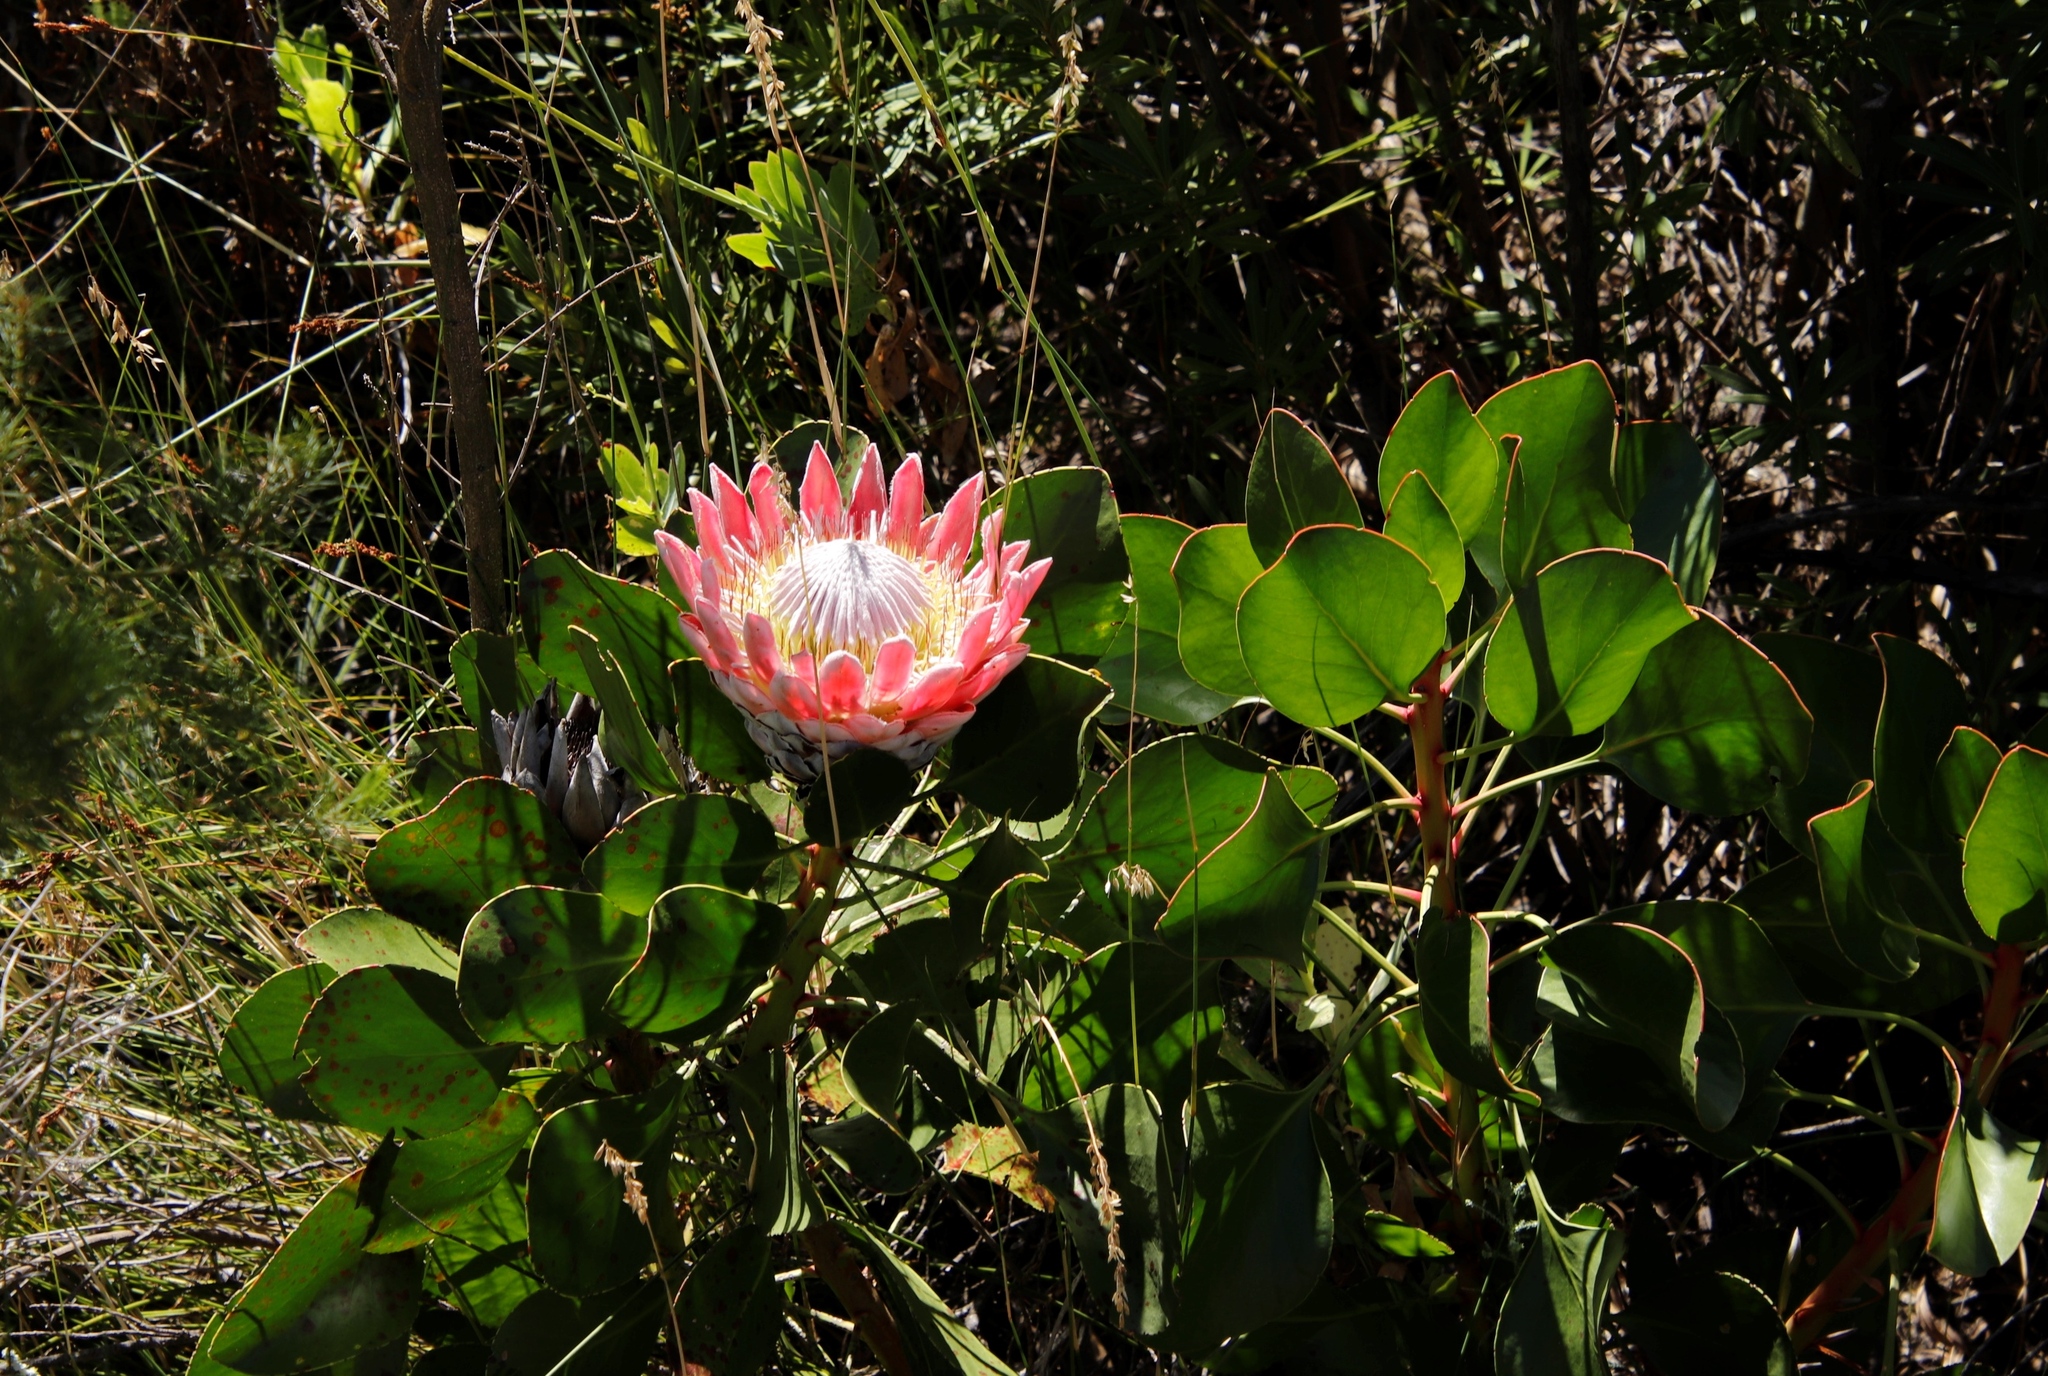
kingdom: Plantae
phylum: Tracheophyta
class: Magnoliopsida
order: Proteales
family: Proteaceae
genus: Protea
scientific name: Protea cynaroides
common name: King protea
